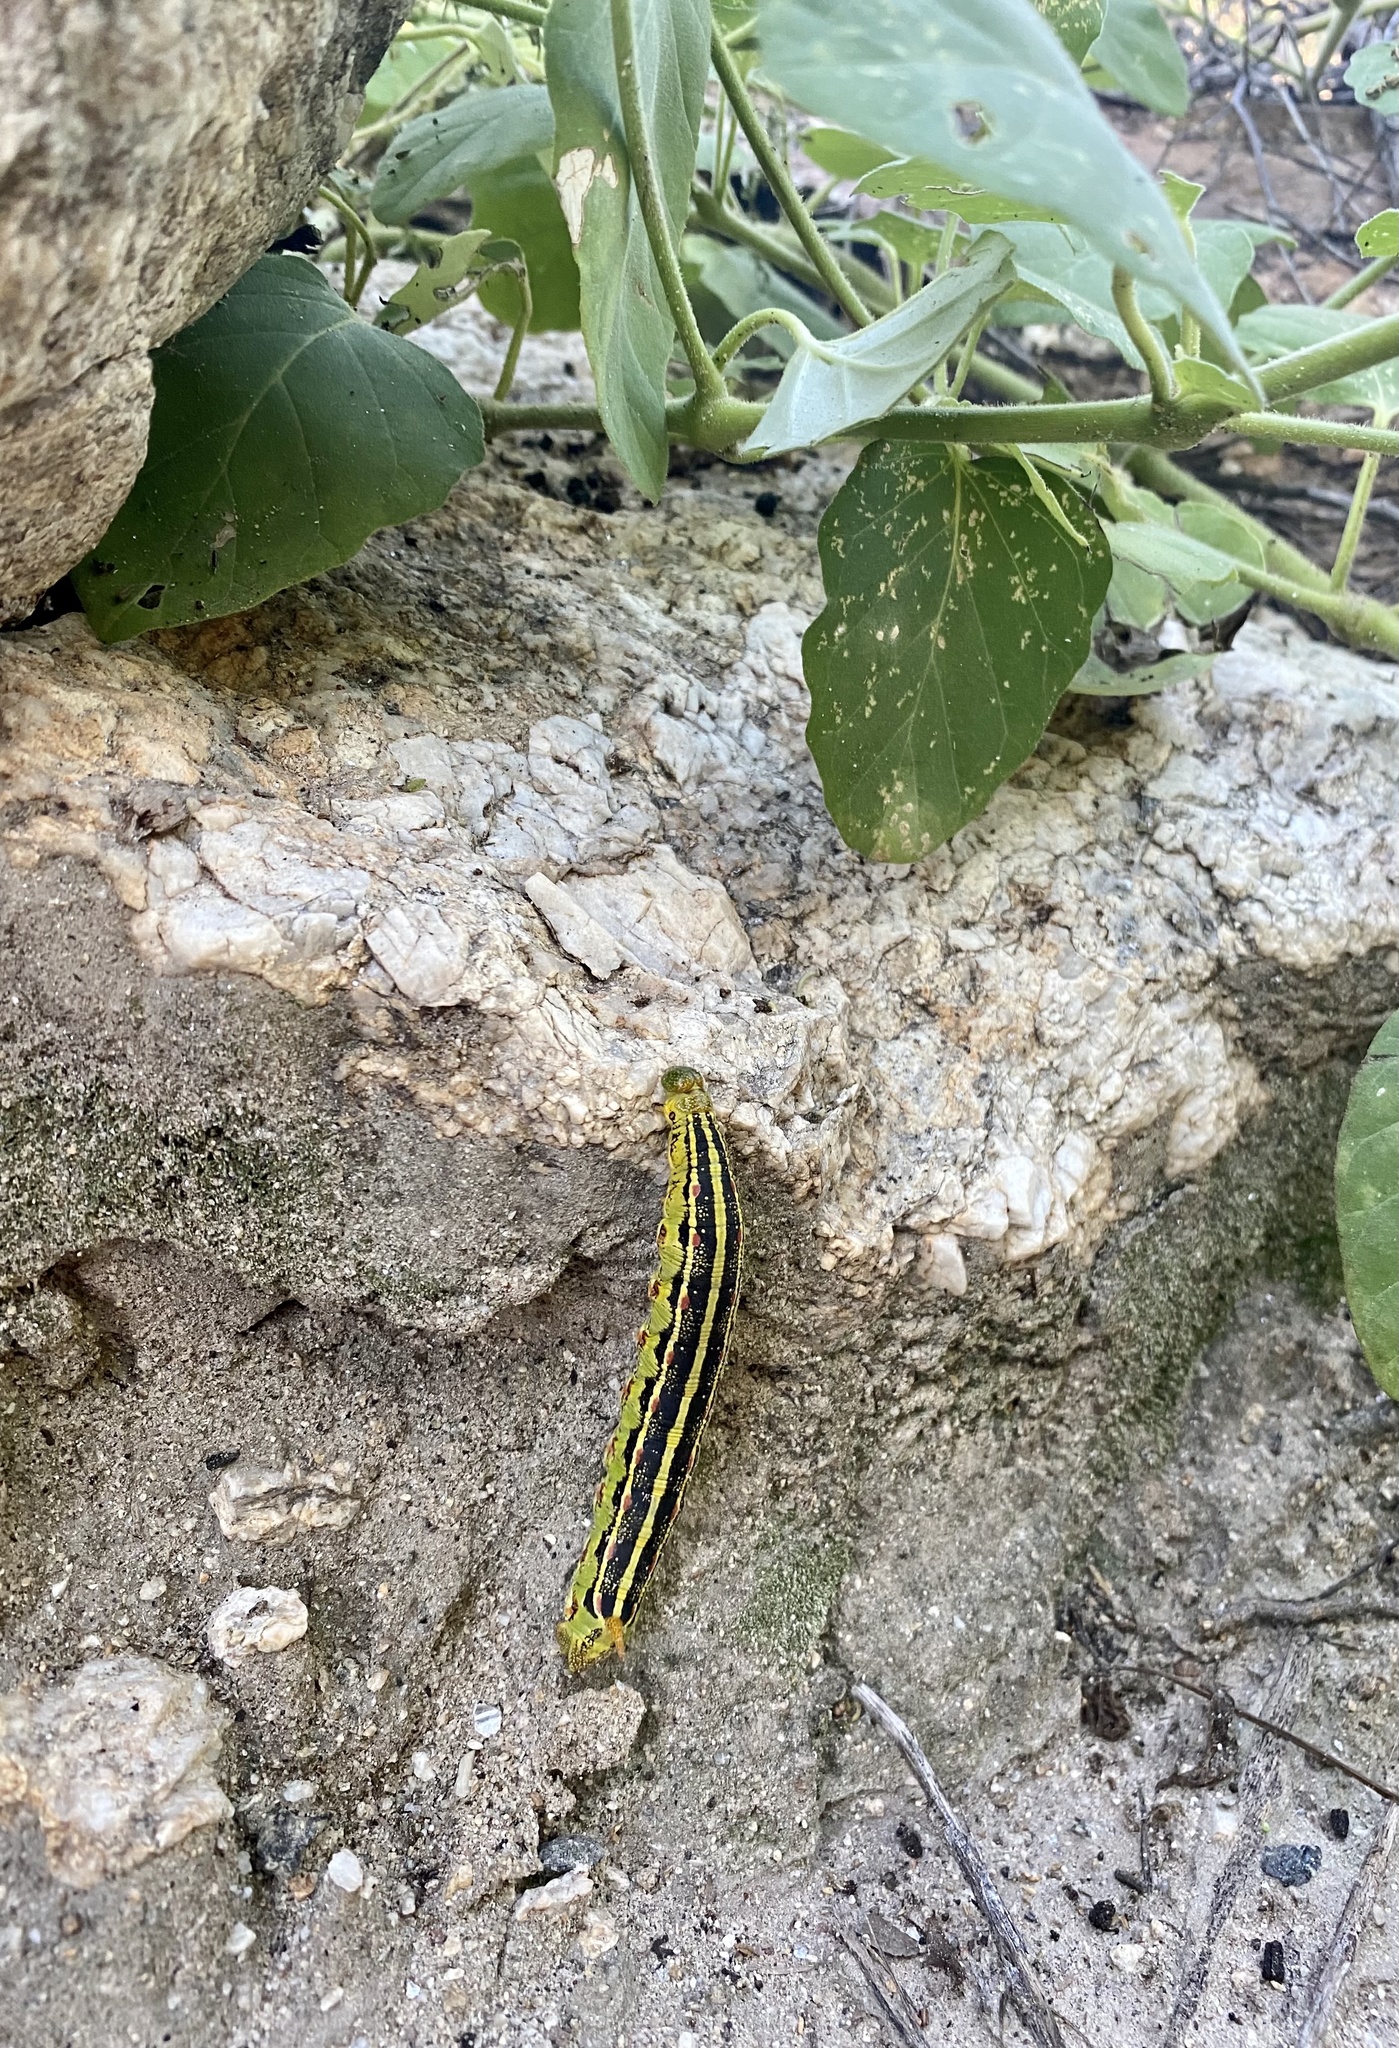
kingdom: Animalia
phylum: Arthropoda
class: Insecta
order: Lepidoptera
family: Sphingidae
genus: Hyles
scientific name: Hyles lineata
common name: White-lined sphinx
